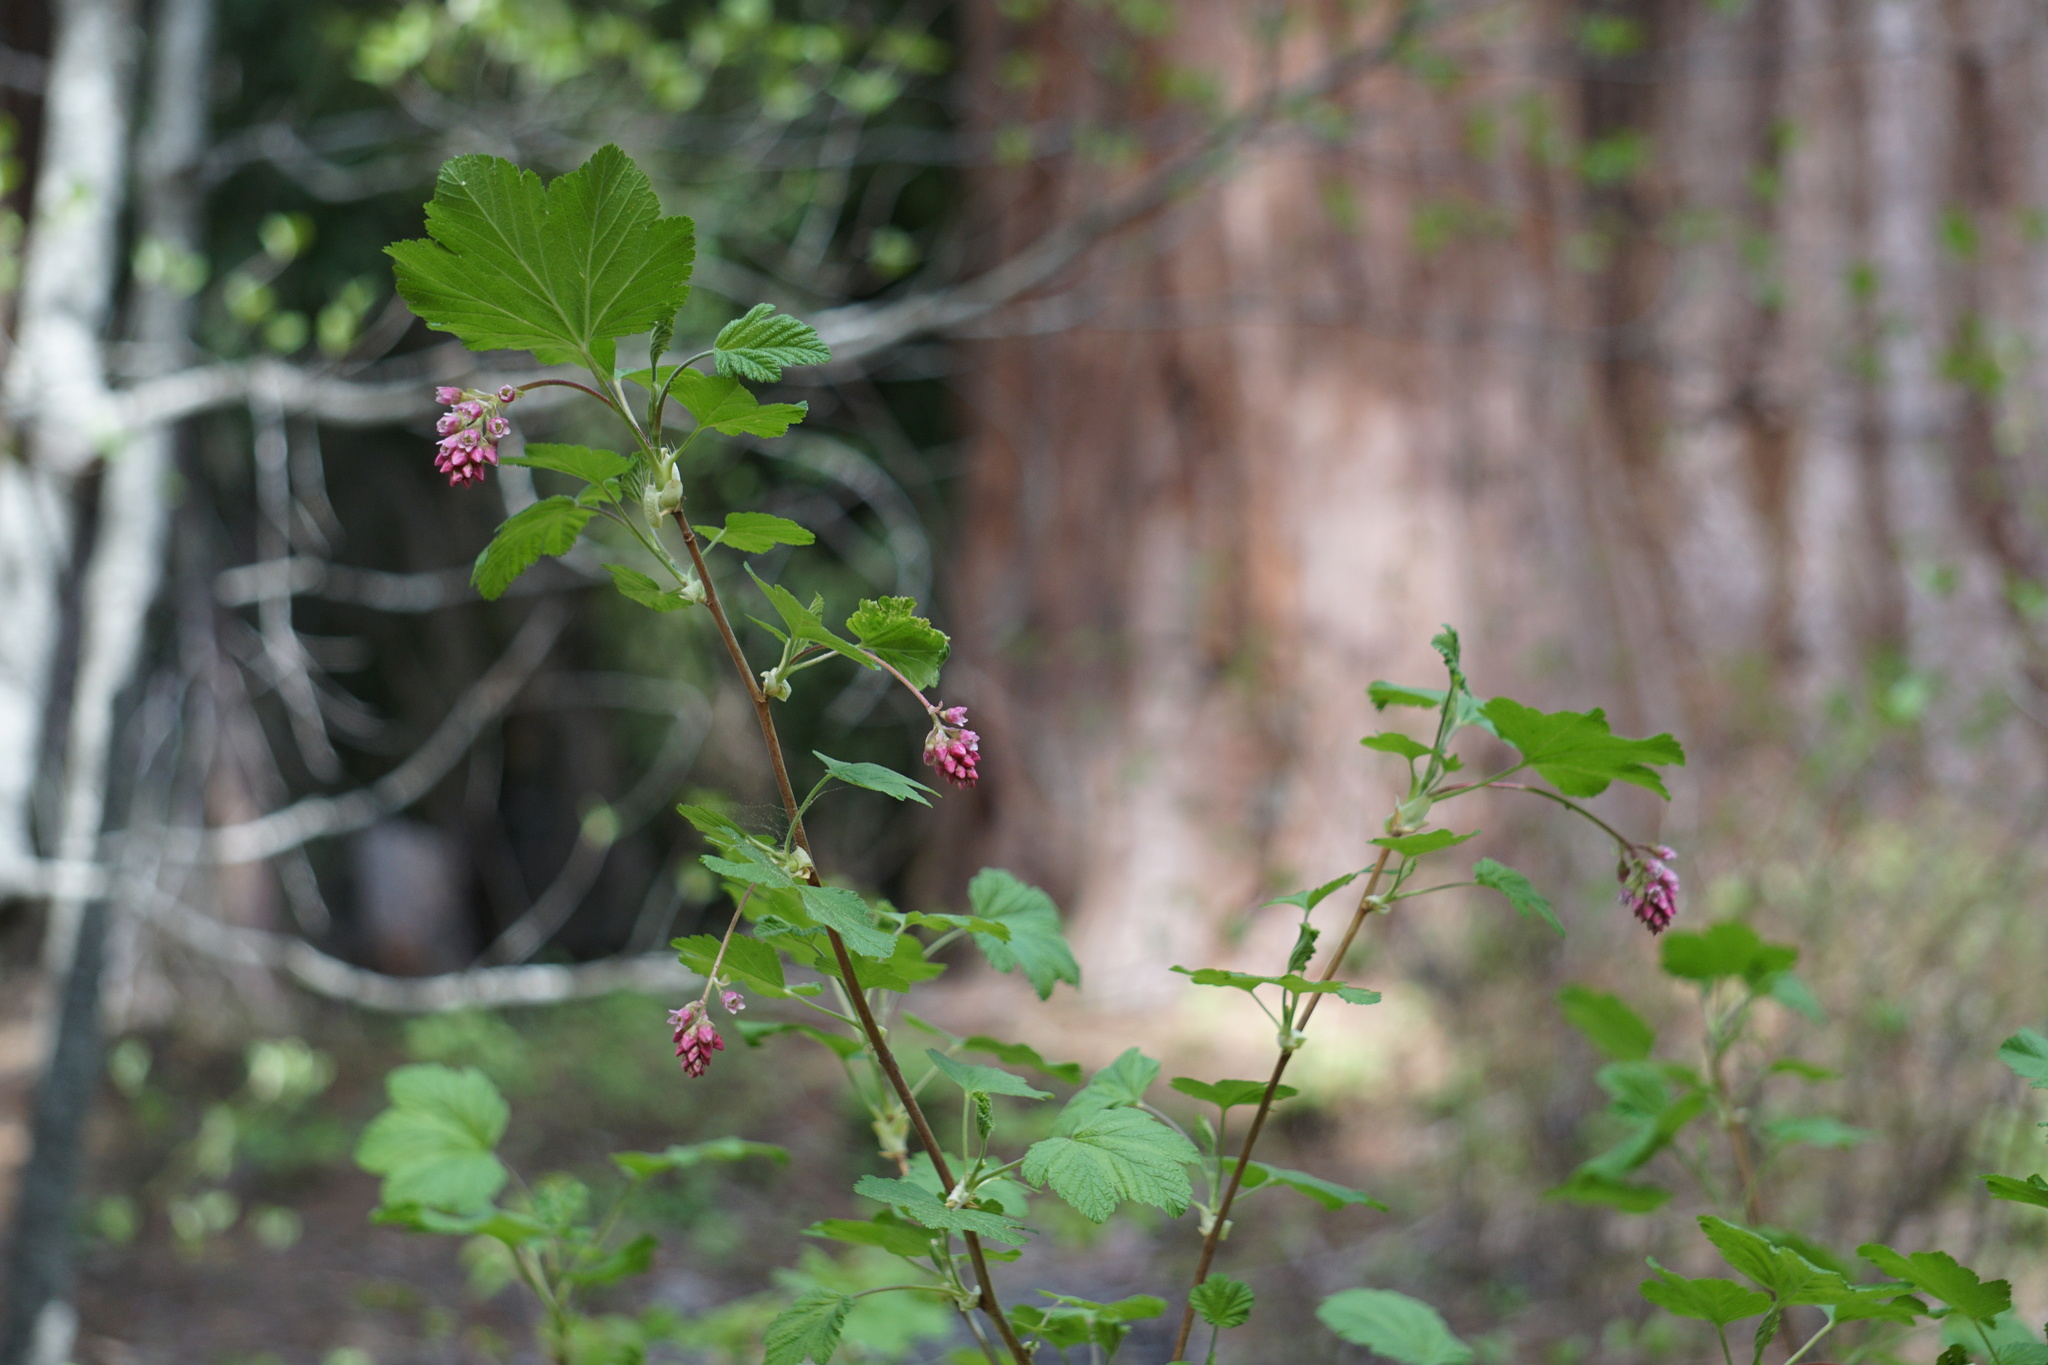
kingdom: Plantae
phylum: Tracheophyta
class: Magnoliopsida
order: Saxifragales
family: Grossulariaceae
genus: Ribes
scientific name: Ribes nevadense
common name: Mountain pink currant
